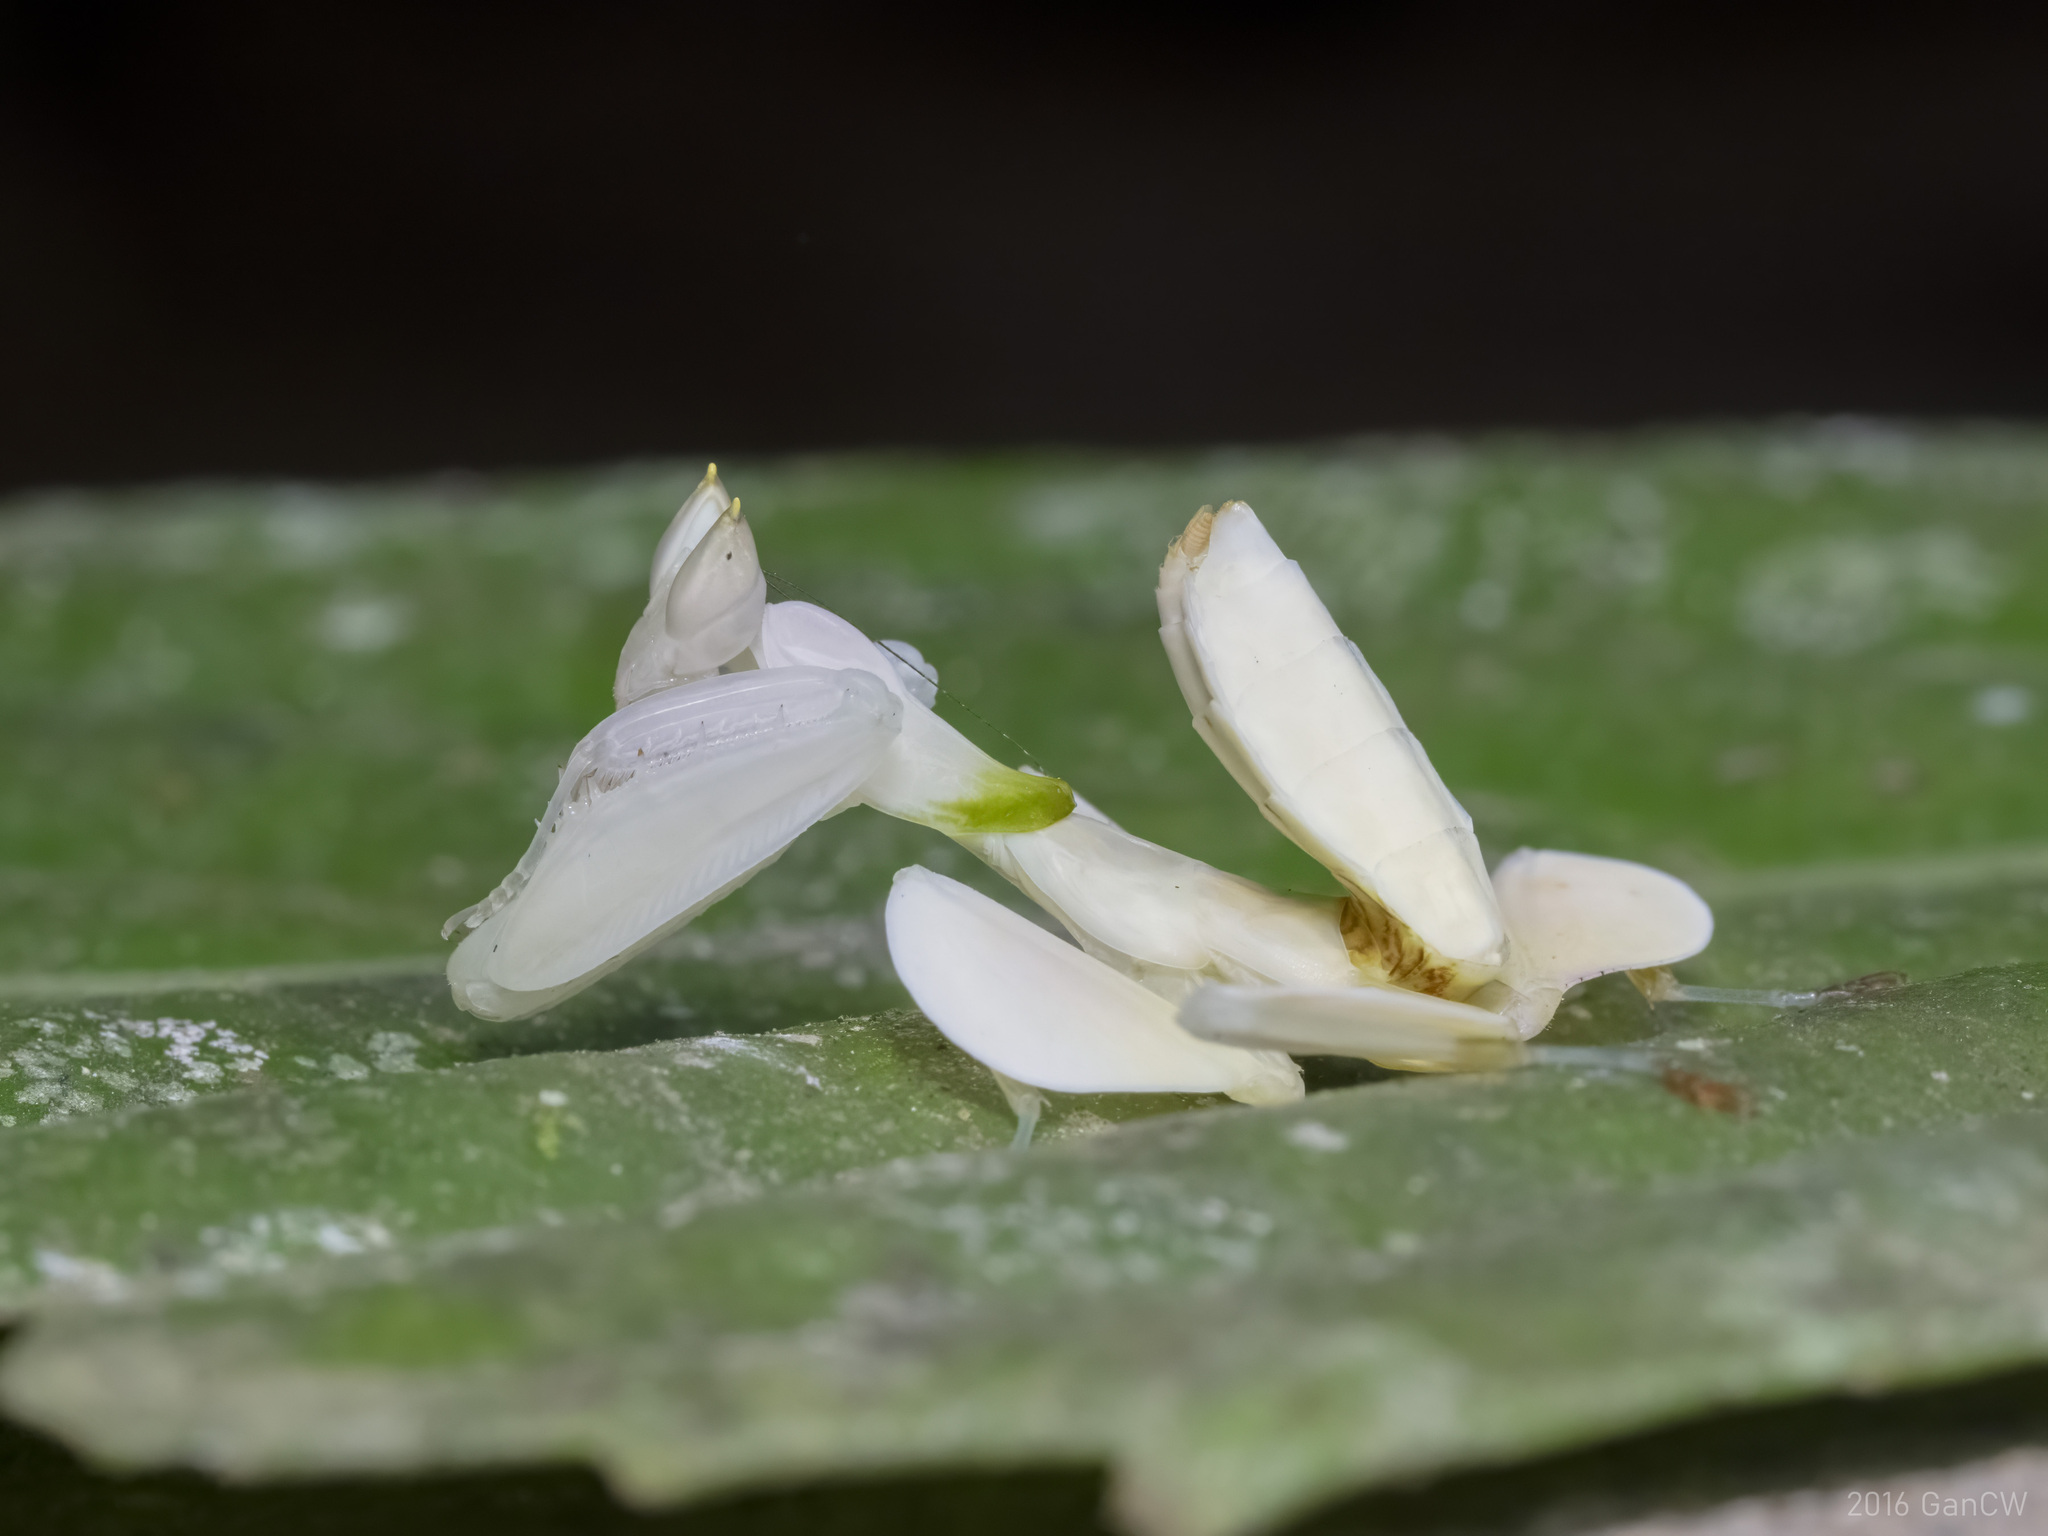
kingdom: Animalia
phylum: Arthropoda
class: Insecta
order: Mantodea
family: Hymenopodidae
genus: Hymenopus
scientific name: Hymenopus coronatus
